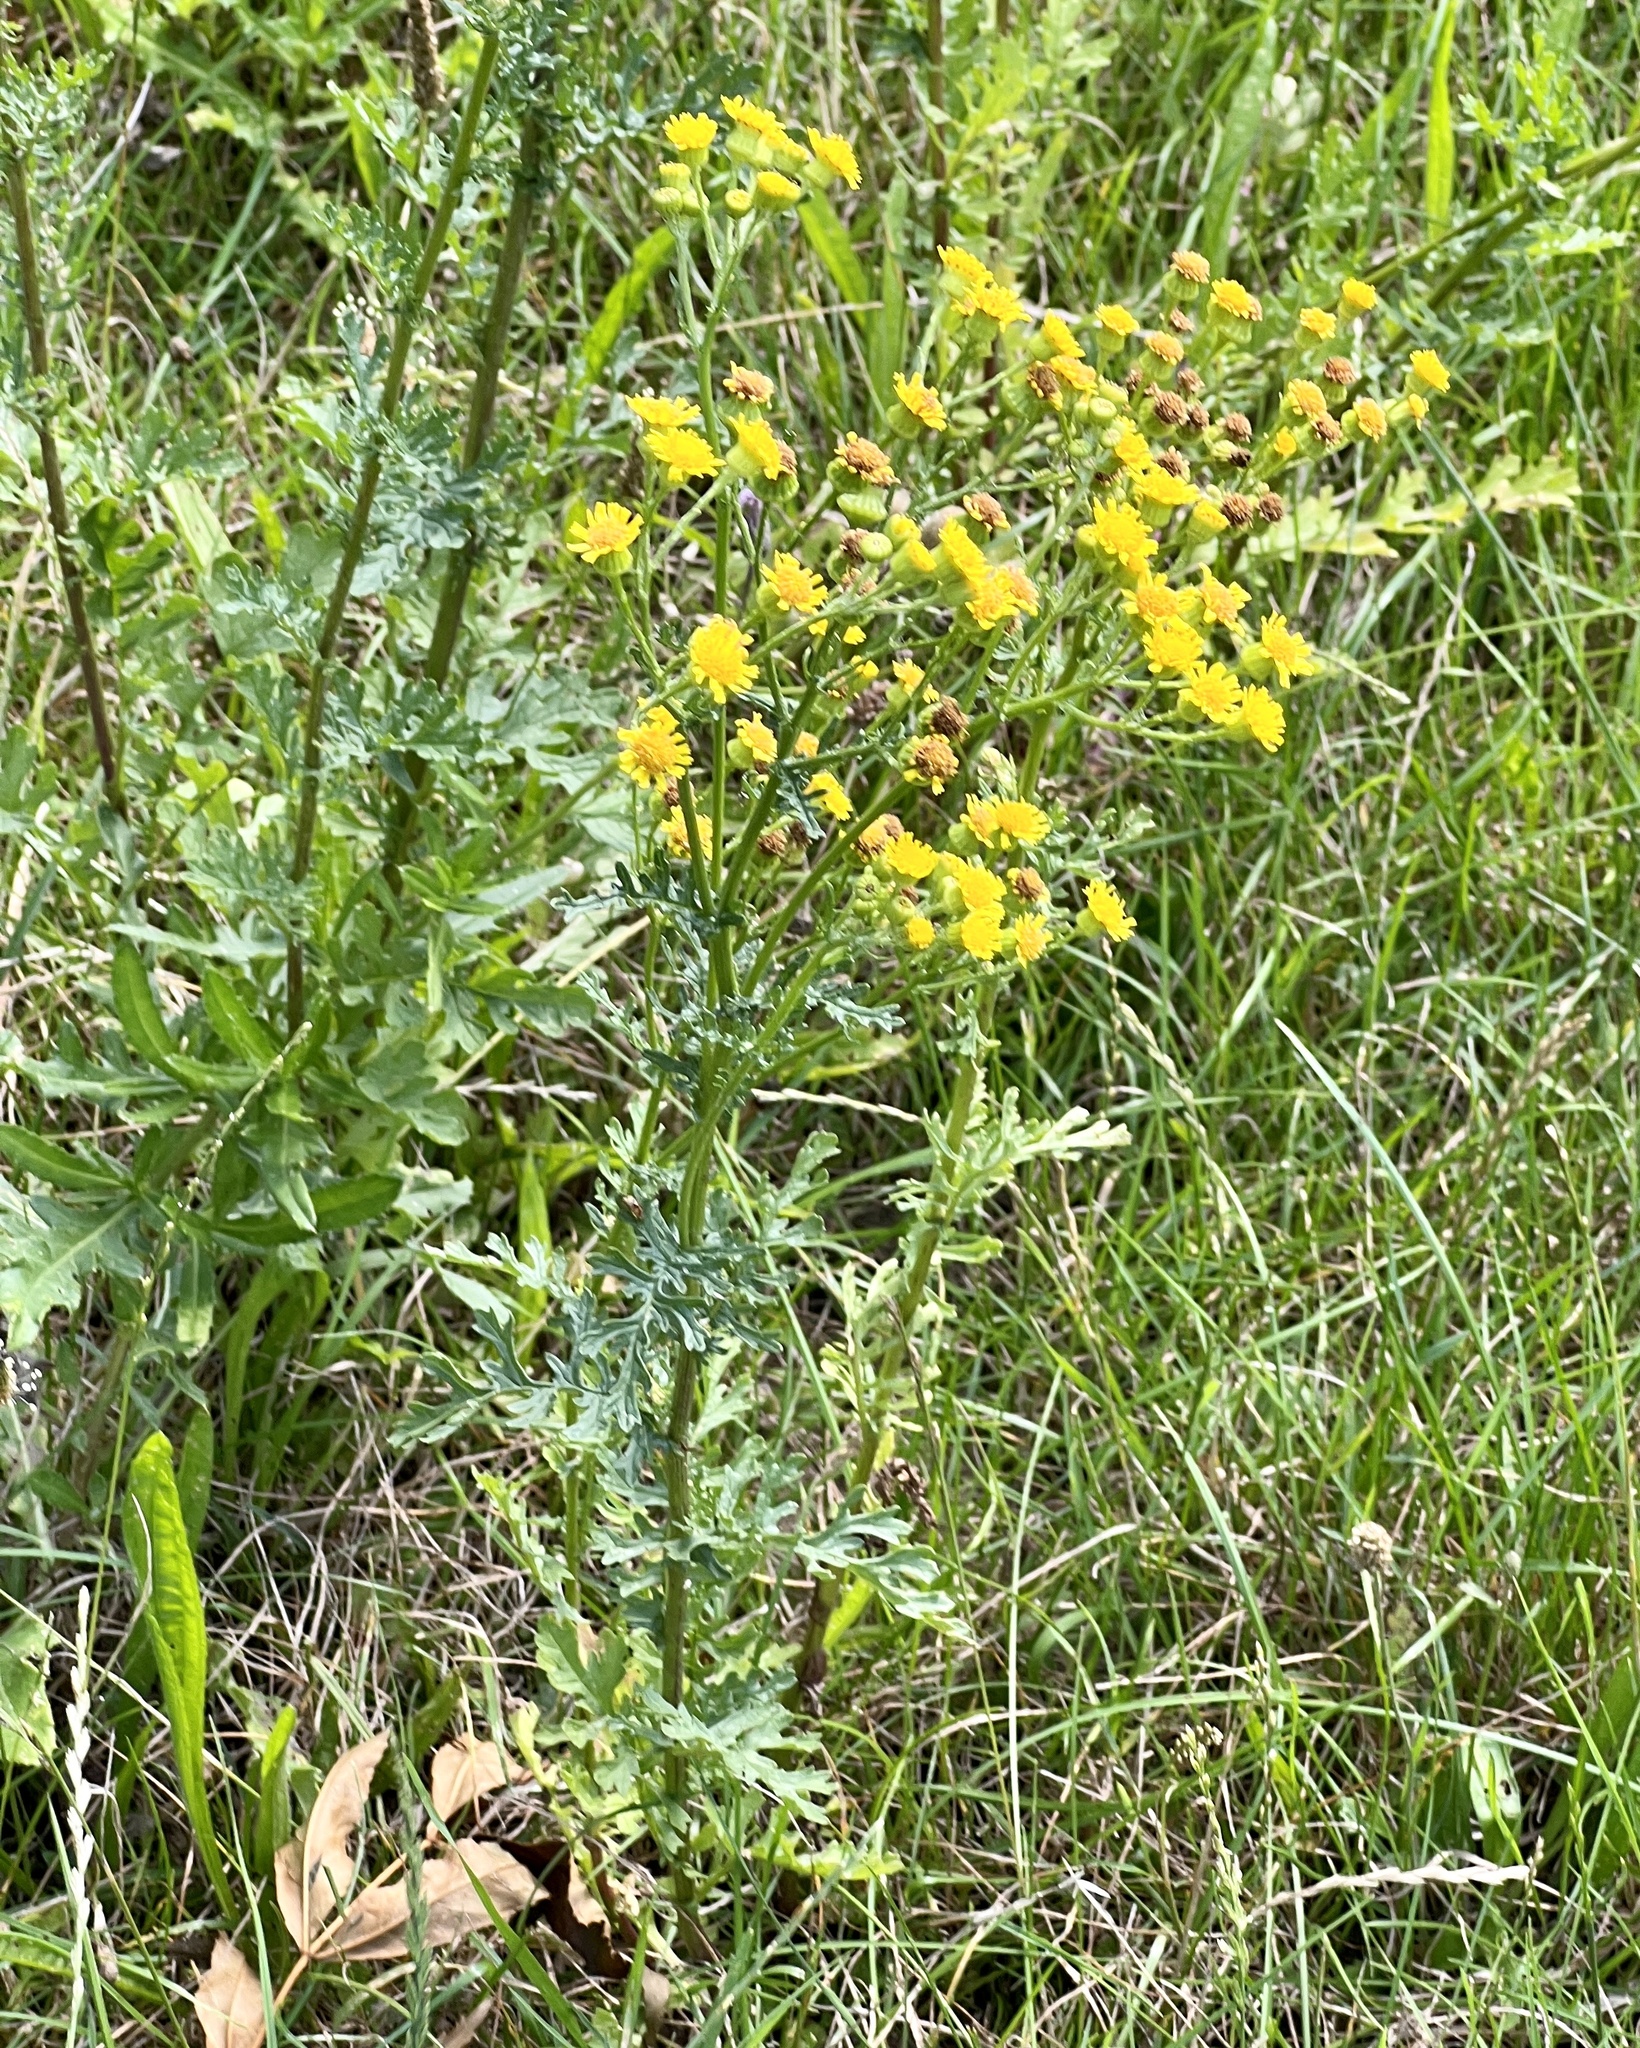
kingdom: Plantae
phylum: Tracheophyta
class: Magnoliopsida
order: Asterales
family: Asteraceae
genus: Jacobaea
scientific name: Jacobaea vulgaris
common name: Stinking willie
